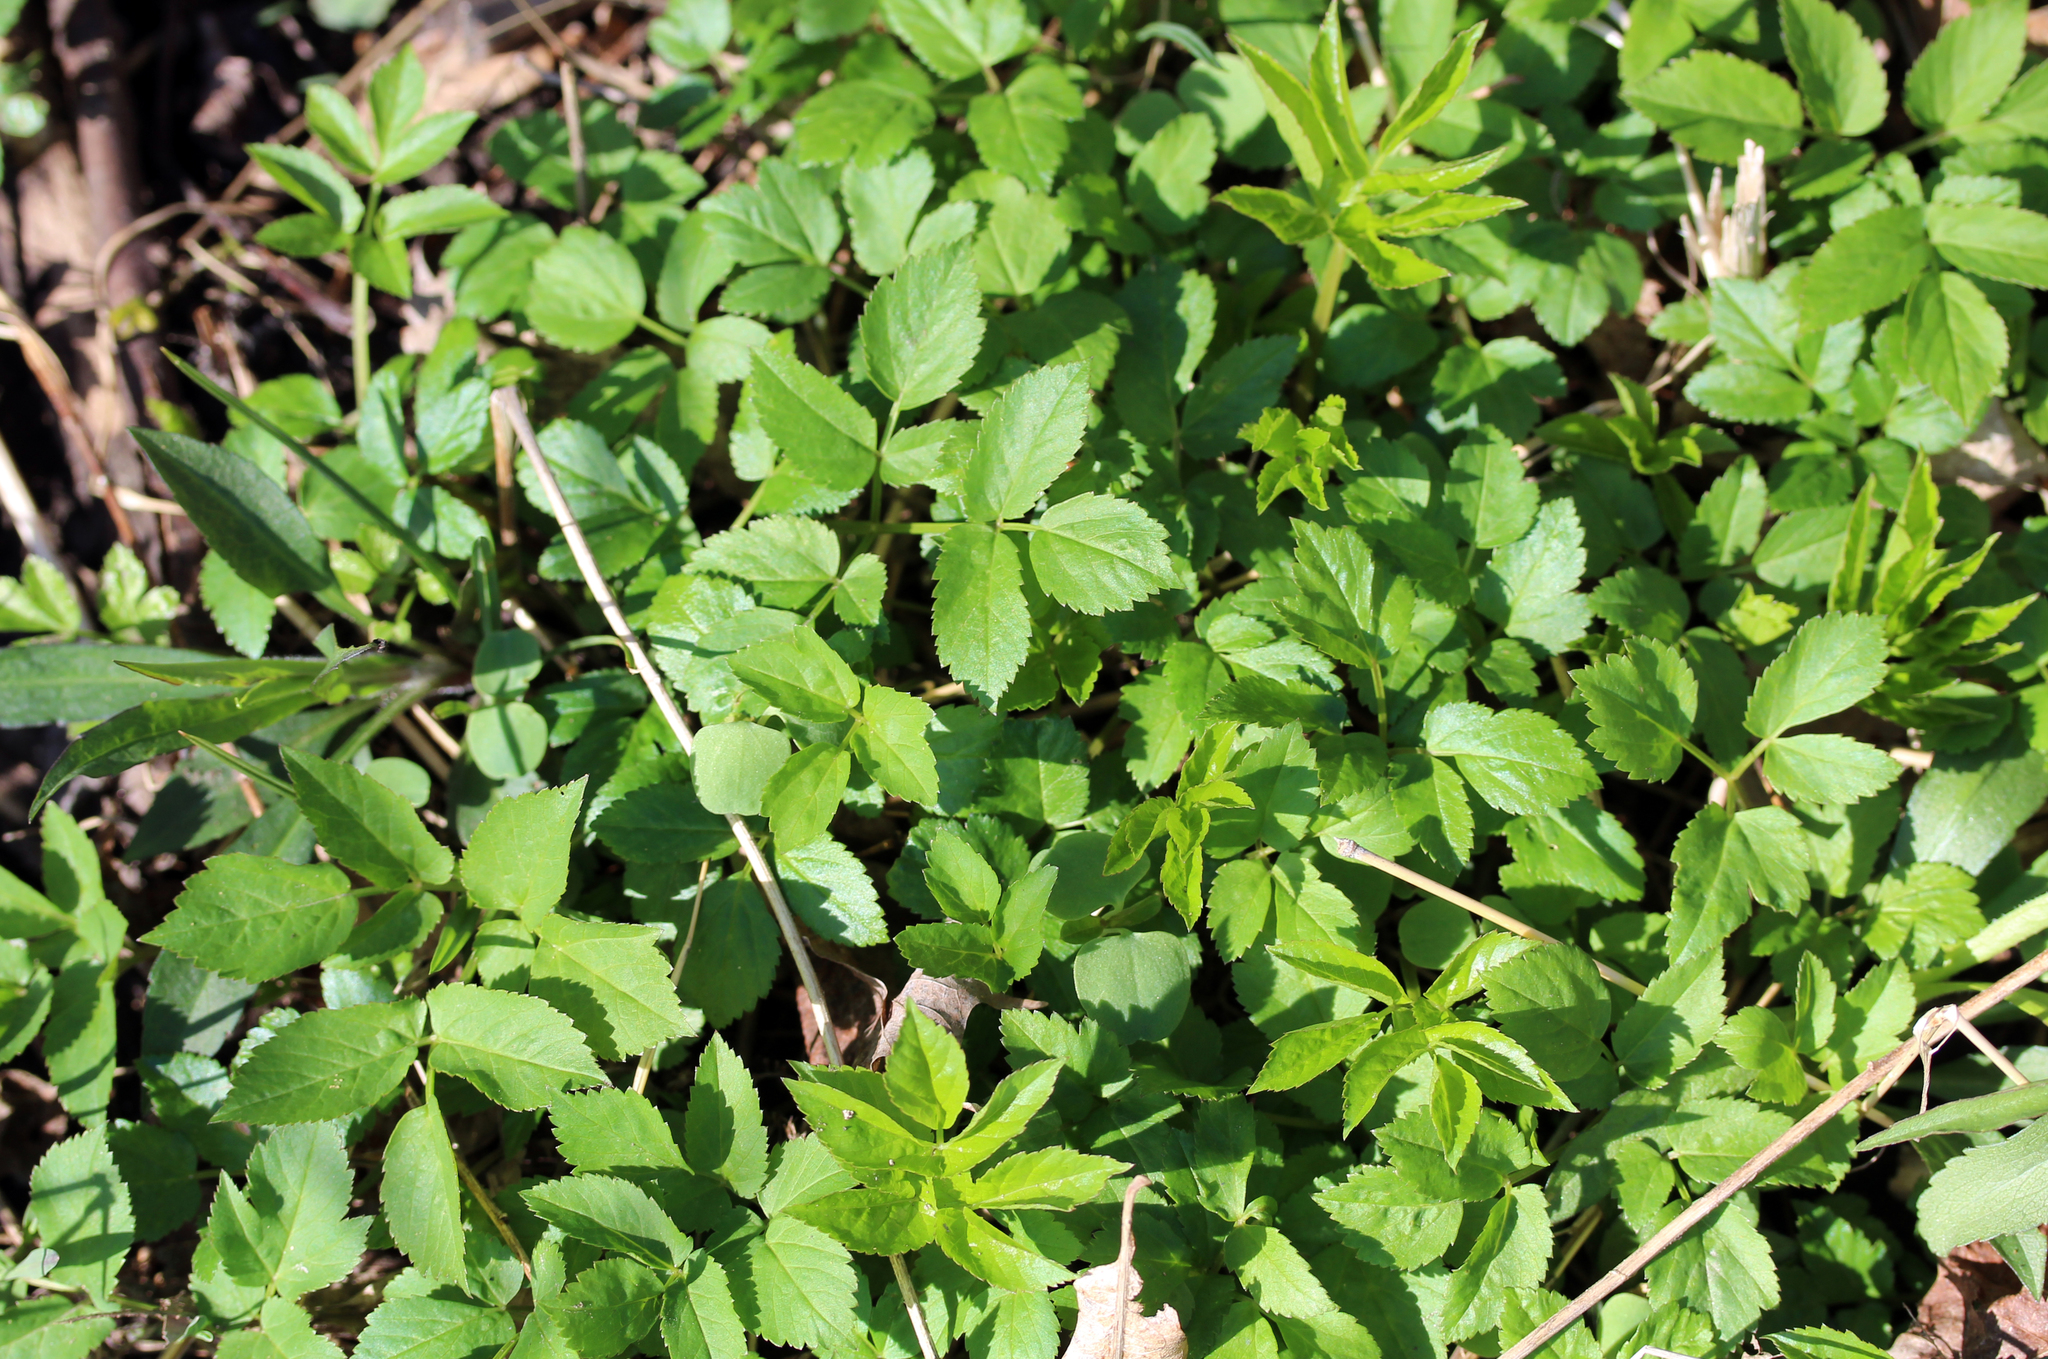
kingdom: Plantae
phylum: Tracheophyta
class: Magnoliopsida
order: Apiales
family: Apiaceae
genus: Aegopodium
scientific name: Aegopodium podagraria
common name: Ground-elder
